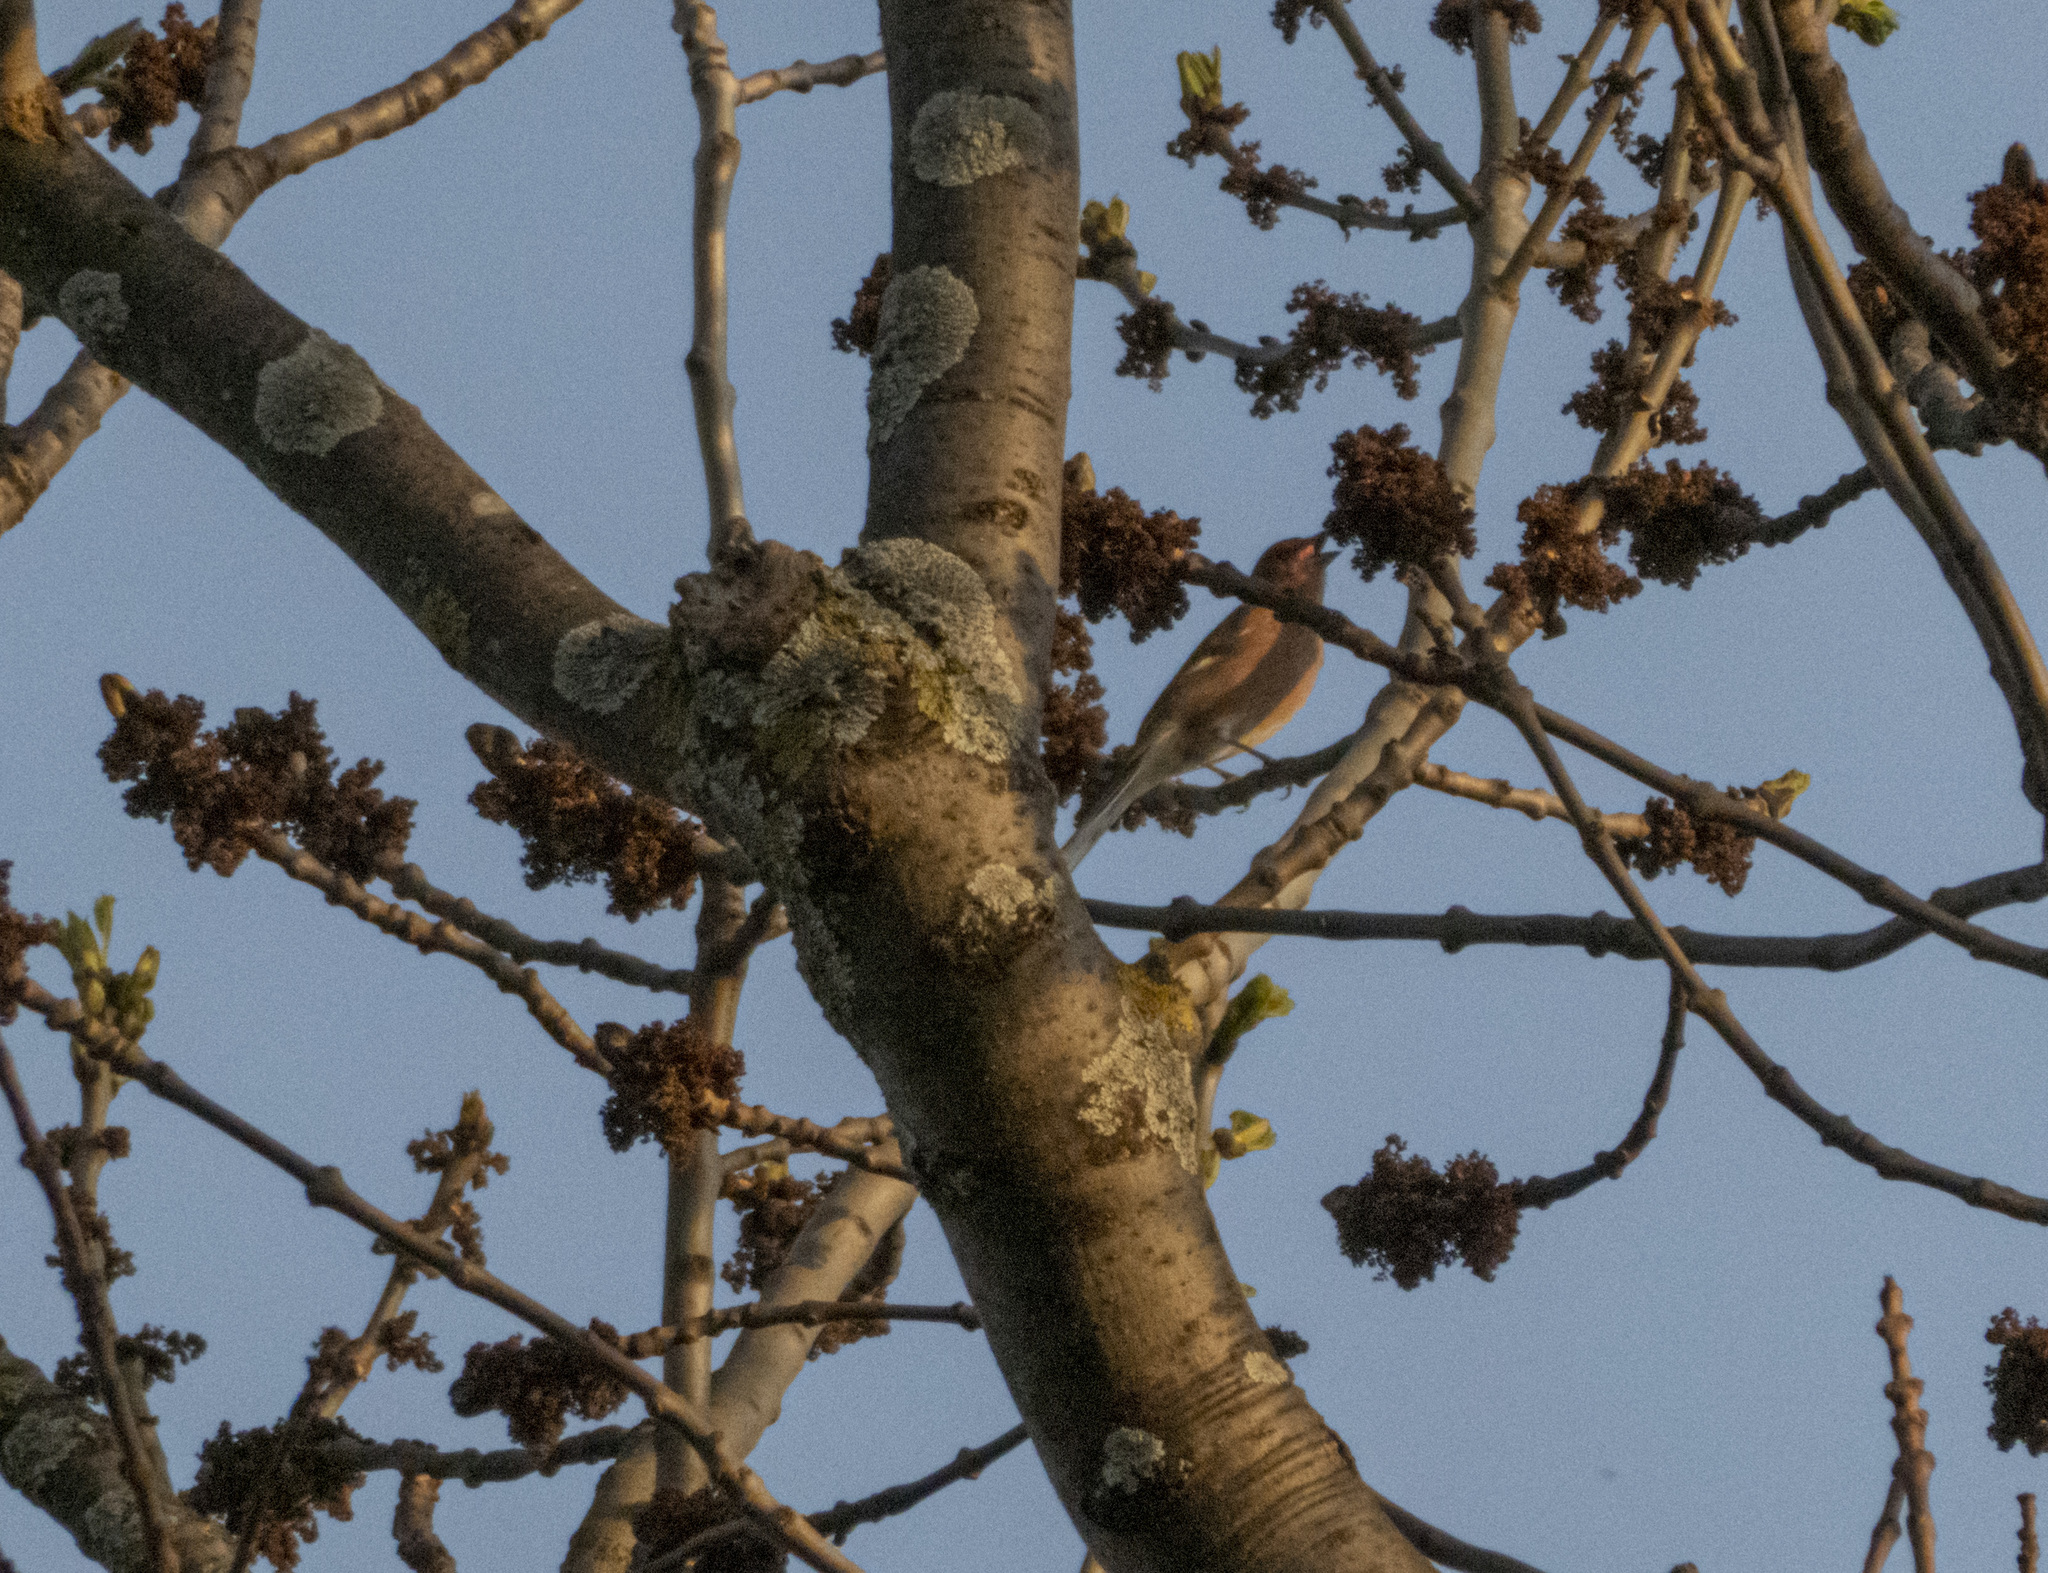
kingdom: Animalia
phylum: Chordata
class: Aves
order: Passeriformes
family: Fringillidae
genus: Fringilla
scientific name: Fringilla coelebs
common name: Common chaffinch
